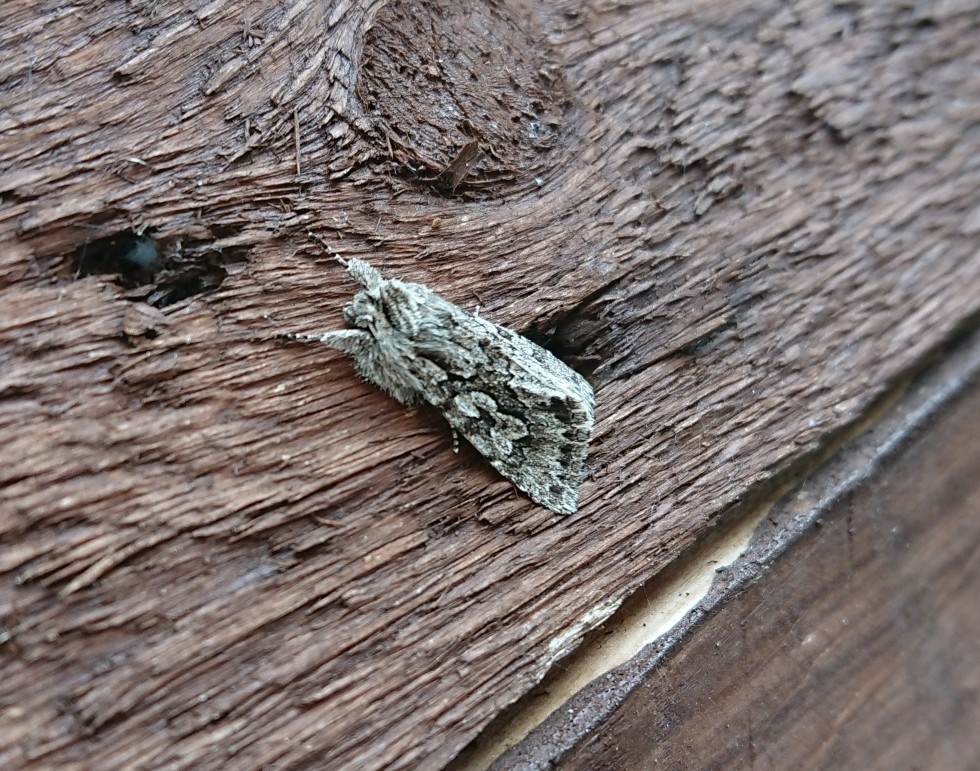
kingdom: Animalia
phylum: Arthropoda
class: Insecta
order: Lepidoptera
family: Noctuidae
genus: Xylocampa
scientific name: Xylocampa areola
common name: Early grey
